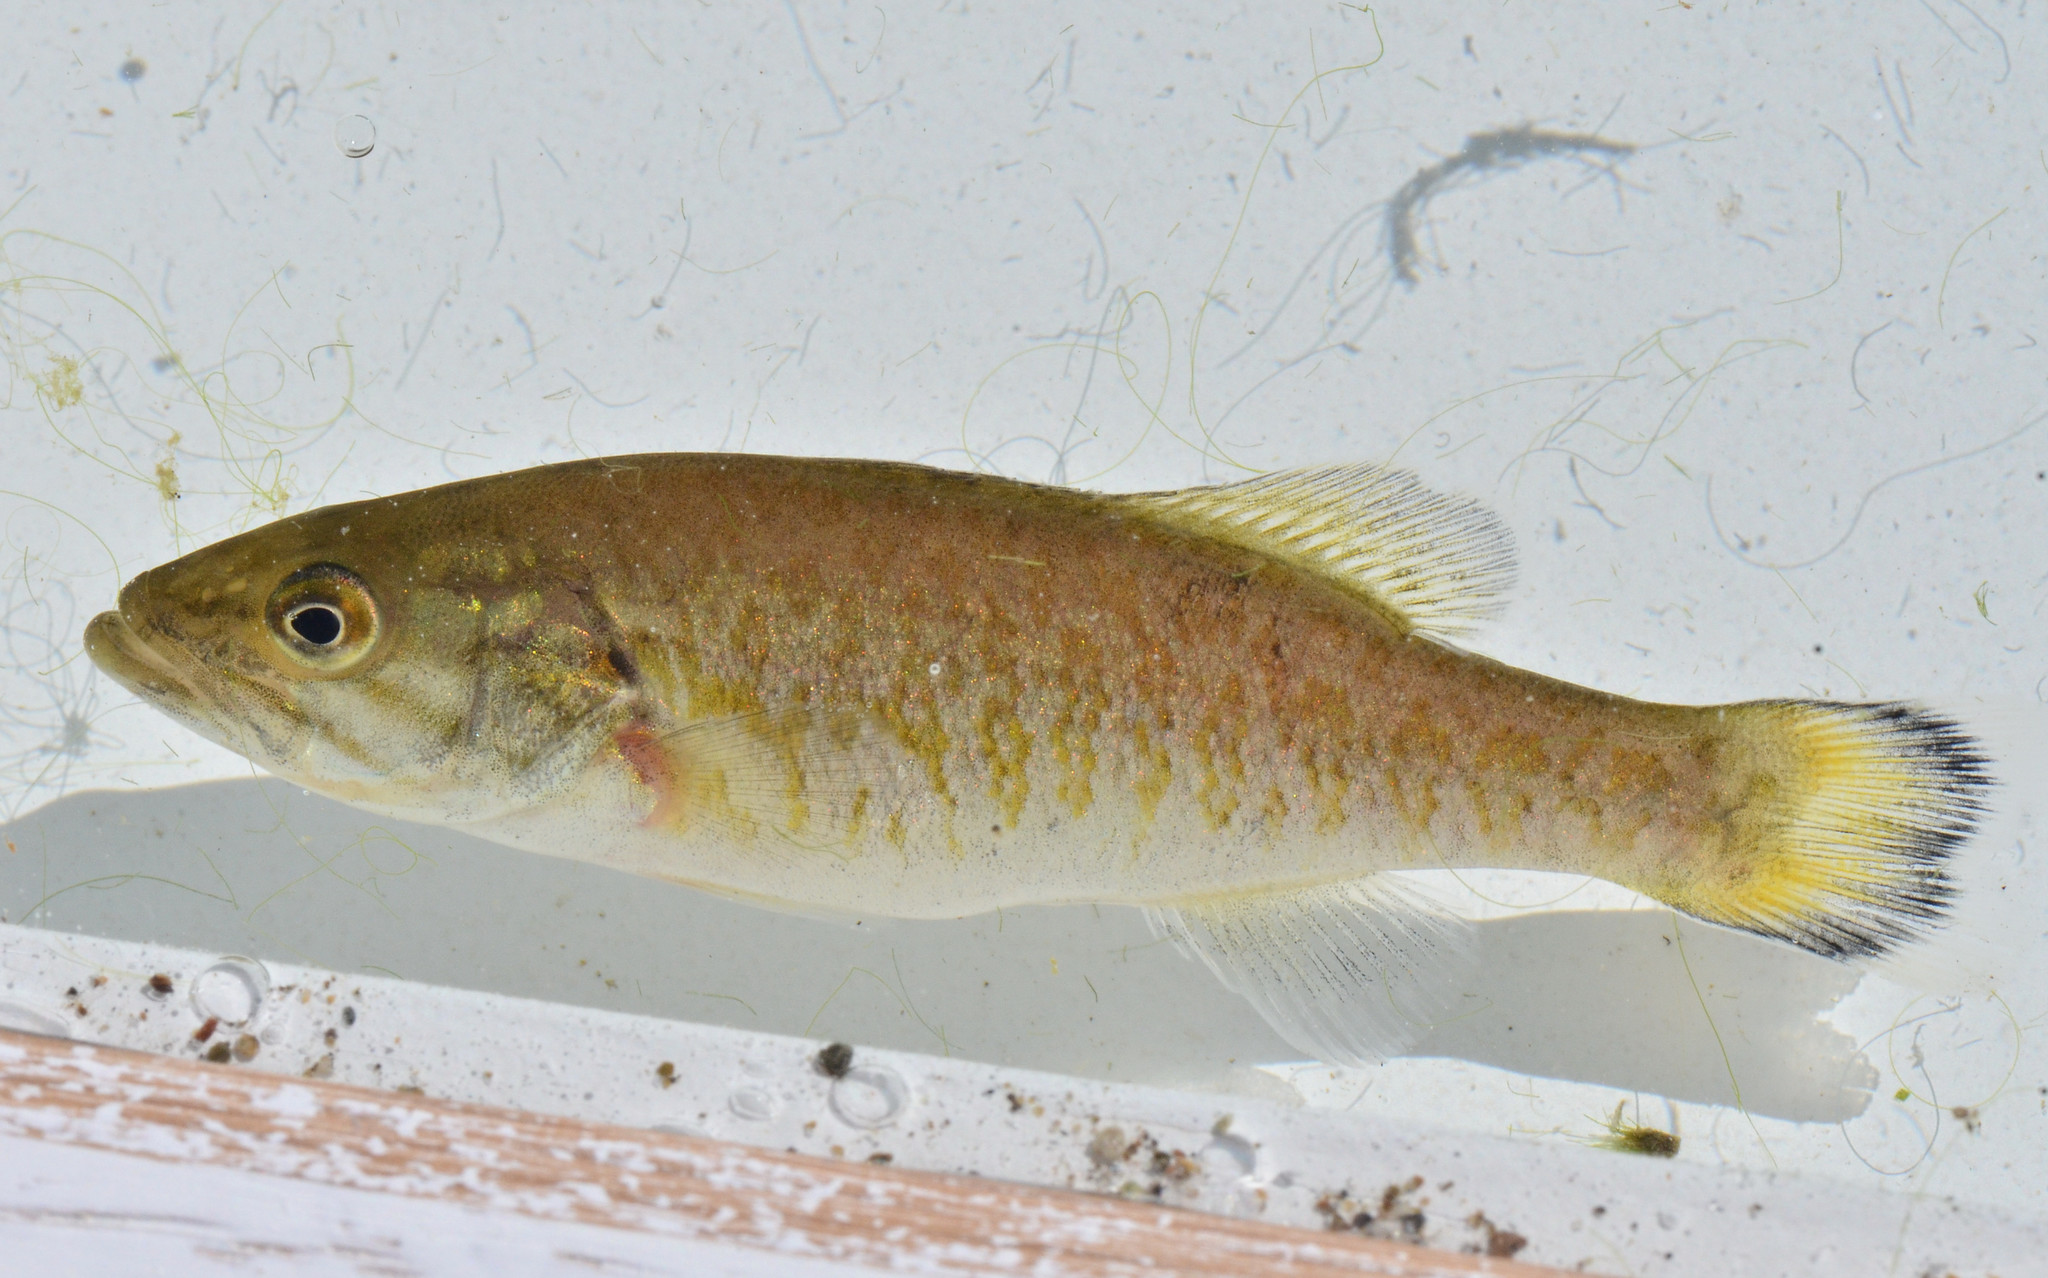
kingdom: Animalia
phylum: Chordata
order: Perciformes
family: Centrarchidae
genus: Micropterus
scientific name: Micropterus dolomieu
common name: Smallmouth bass
